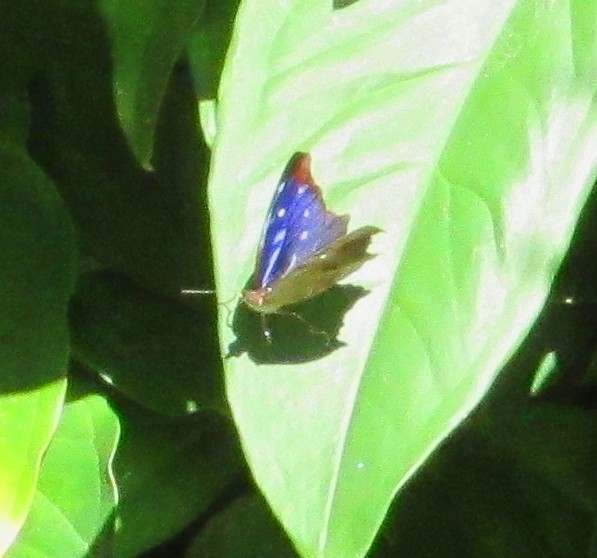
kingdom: Animalia
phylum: Arthropoda
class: Insecta
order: Lepidoptera
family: Nymphalidae
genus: Myscelia
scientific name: Myscelia orsis
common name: Orsis bluewing
